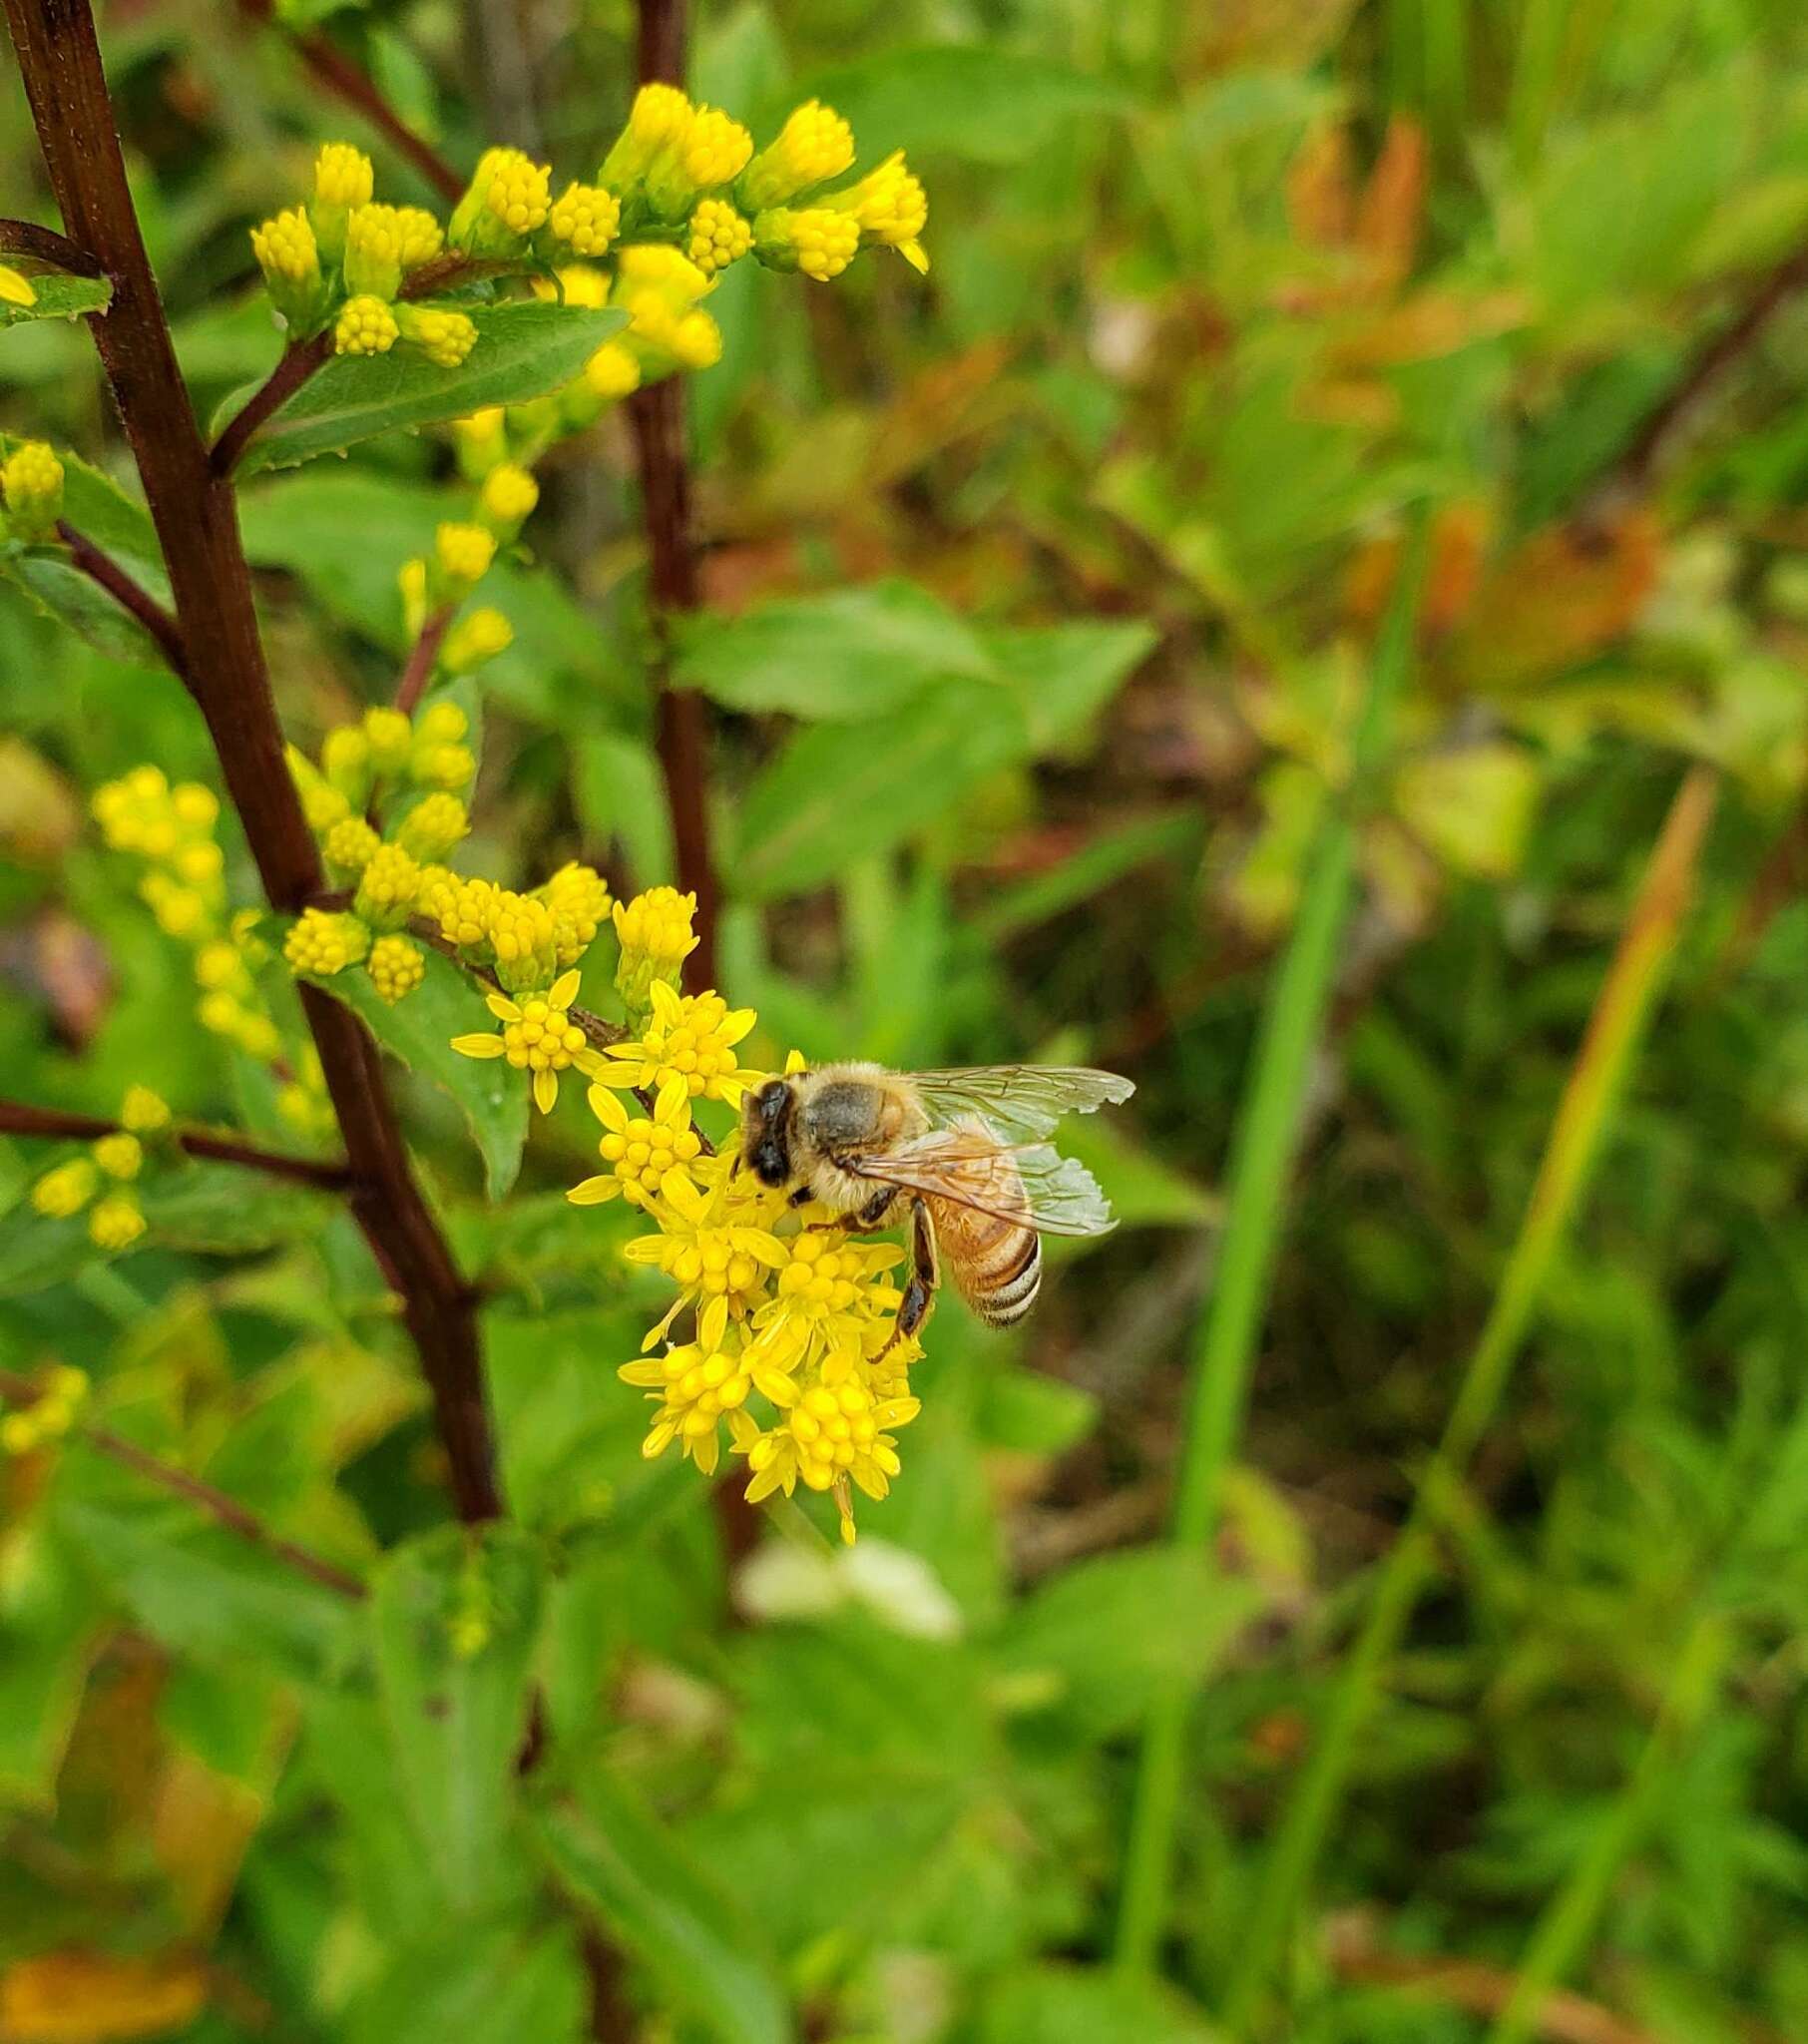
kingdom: Animalia
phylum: Arthropoda
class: Insecta
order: Hymenoptera
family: Apidae
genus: Apis
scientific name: Apis mellifera
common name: Honey bee
